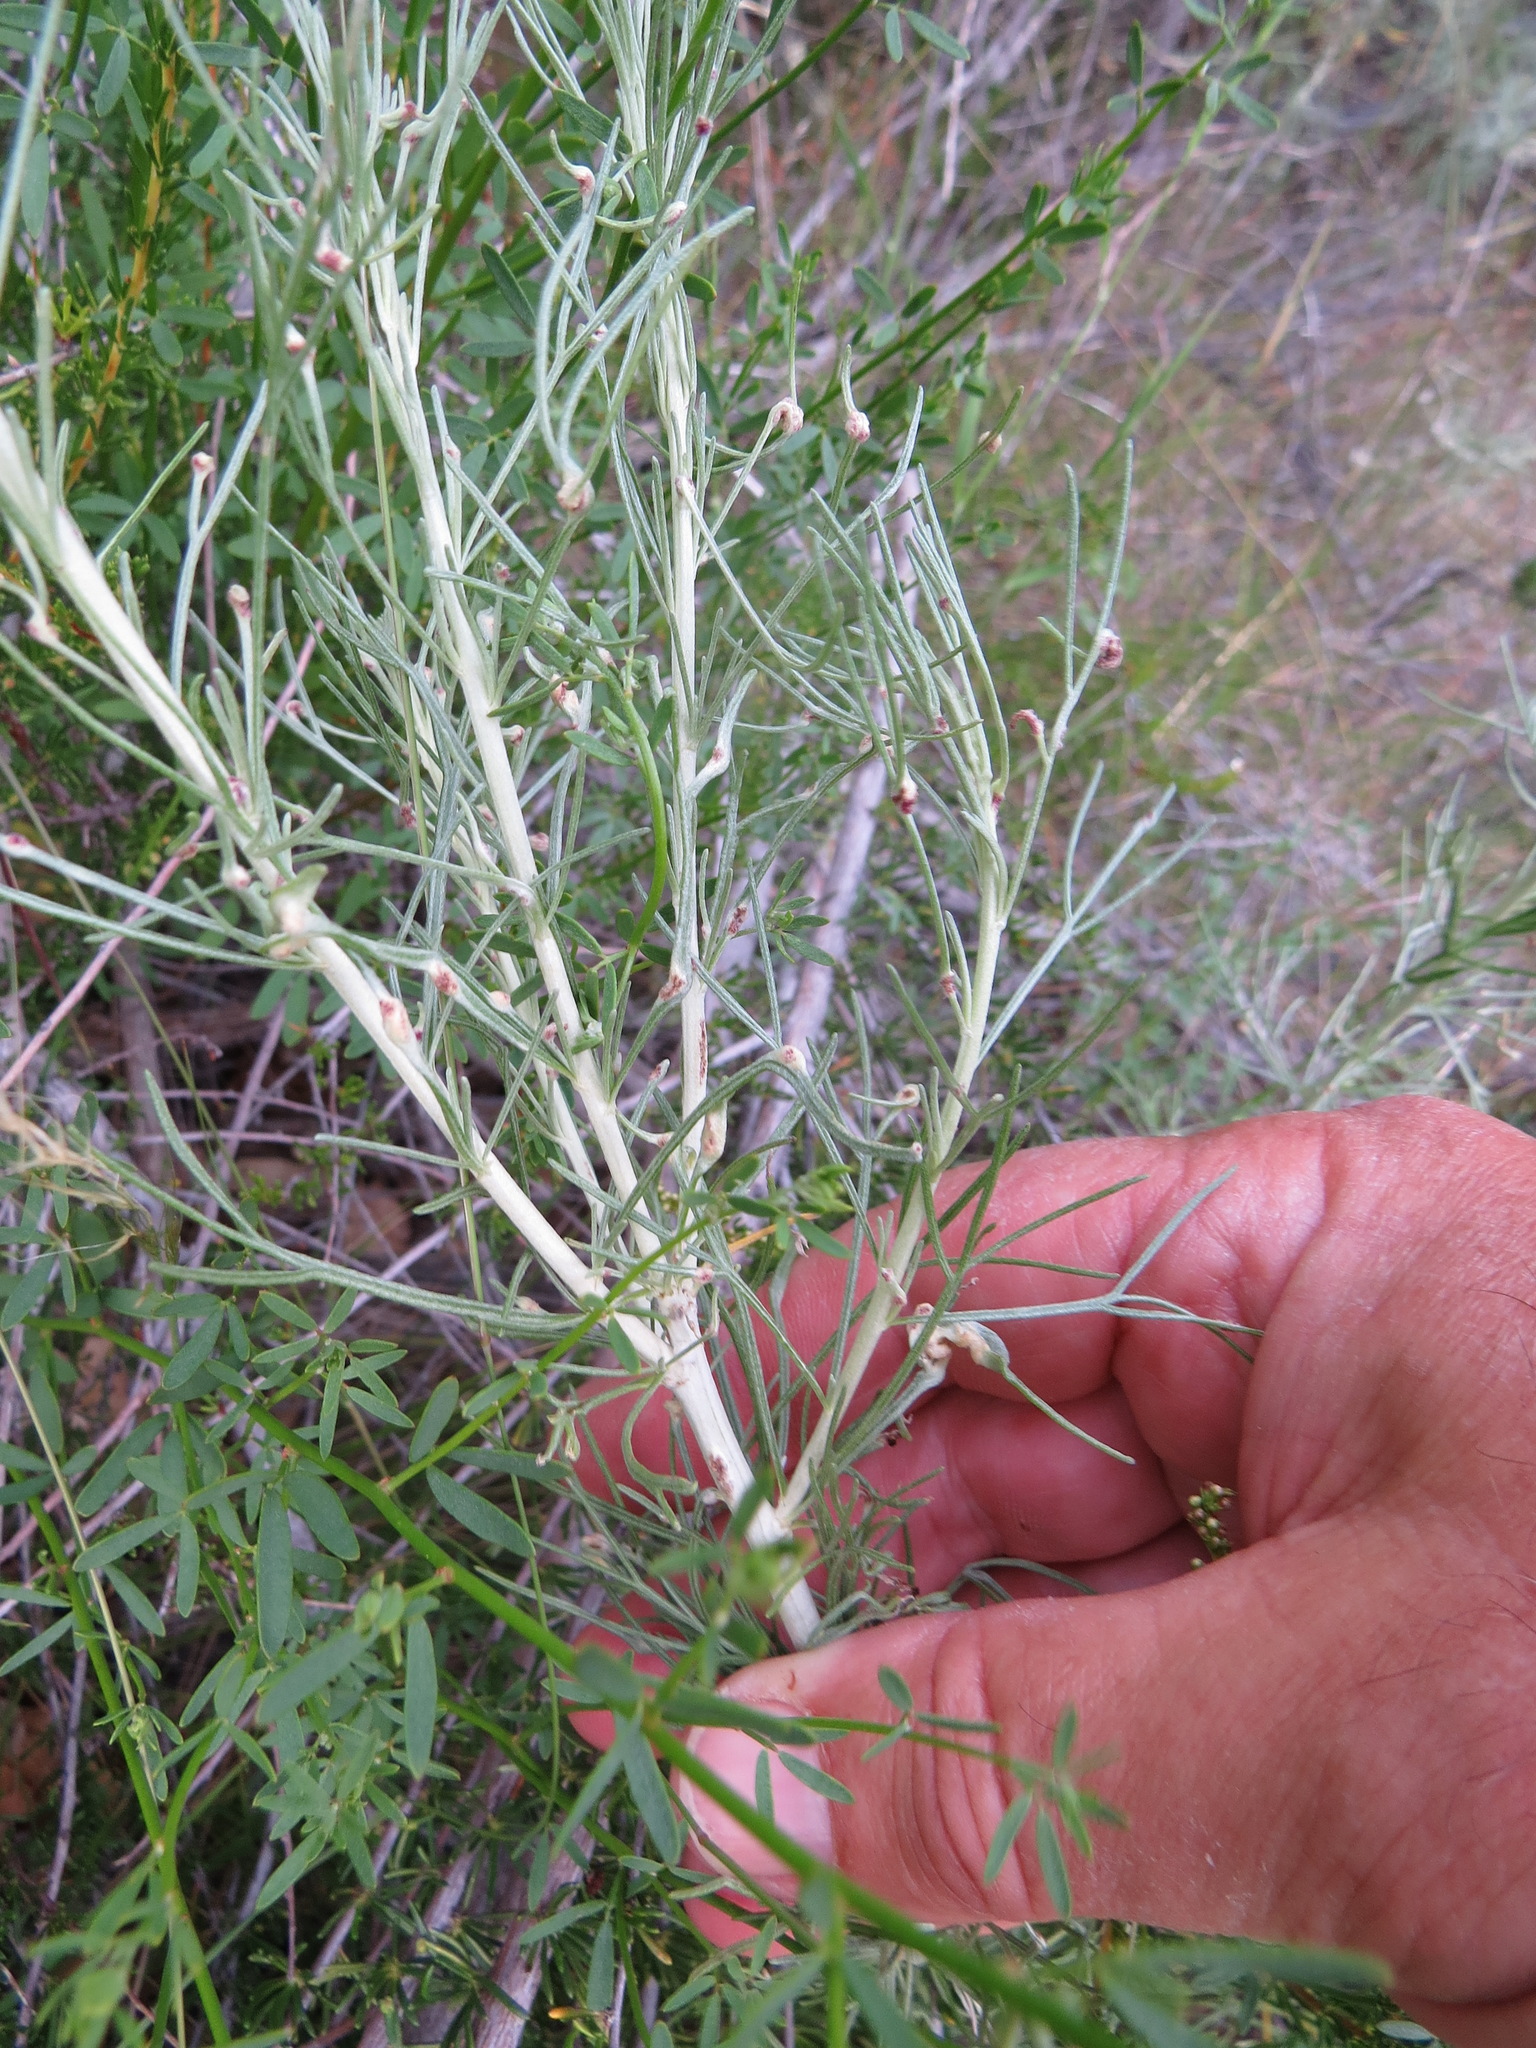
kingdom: Plantae
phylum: Tracheophyta
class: Magnoliopsida
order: Asterales
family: Asteraceae
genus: Artemisia
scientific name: Artemisia californica
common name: California sagebrush
